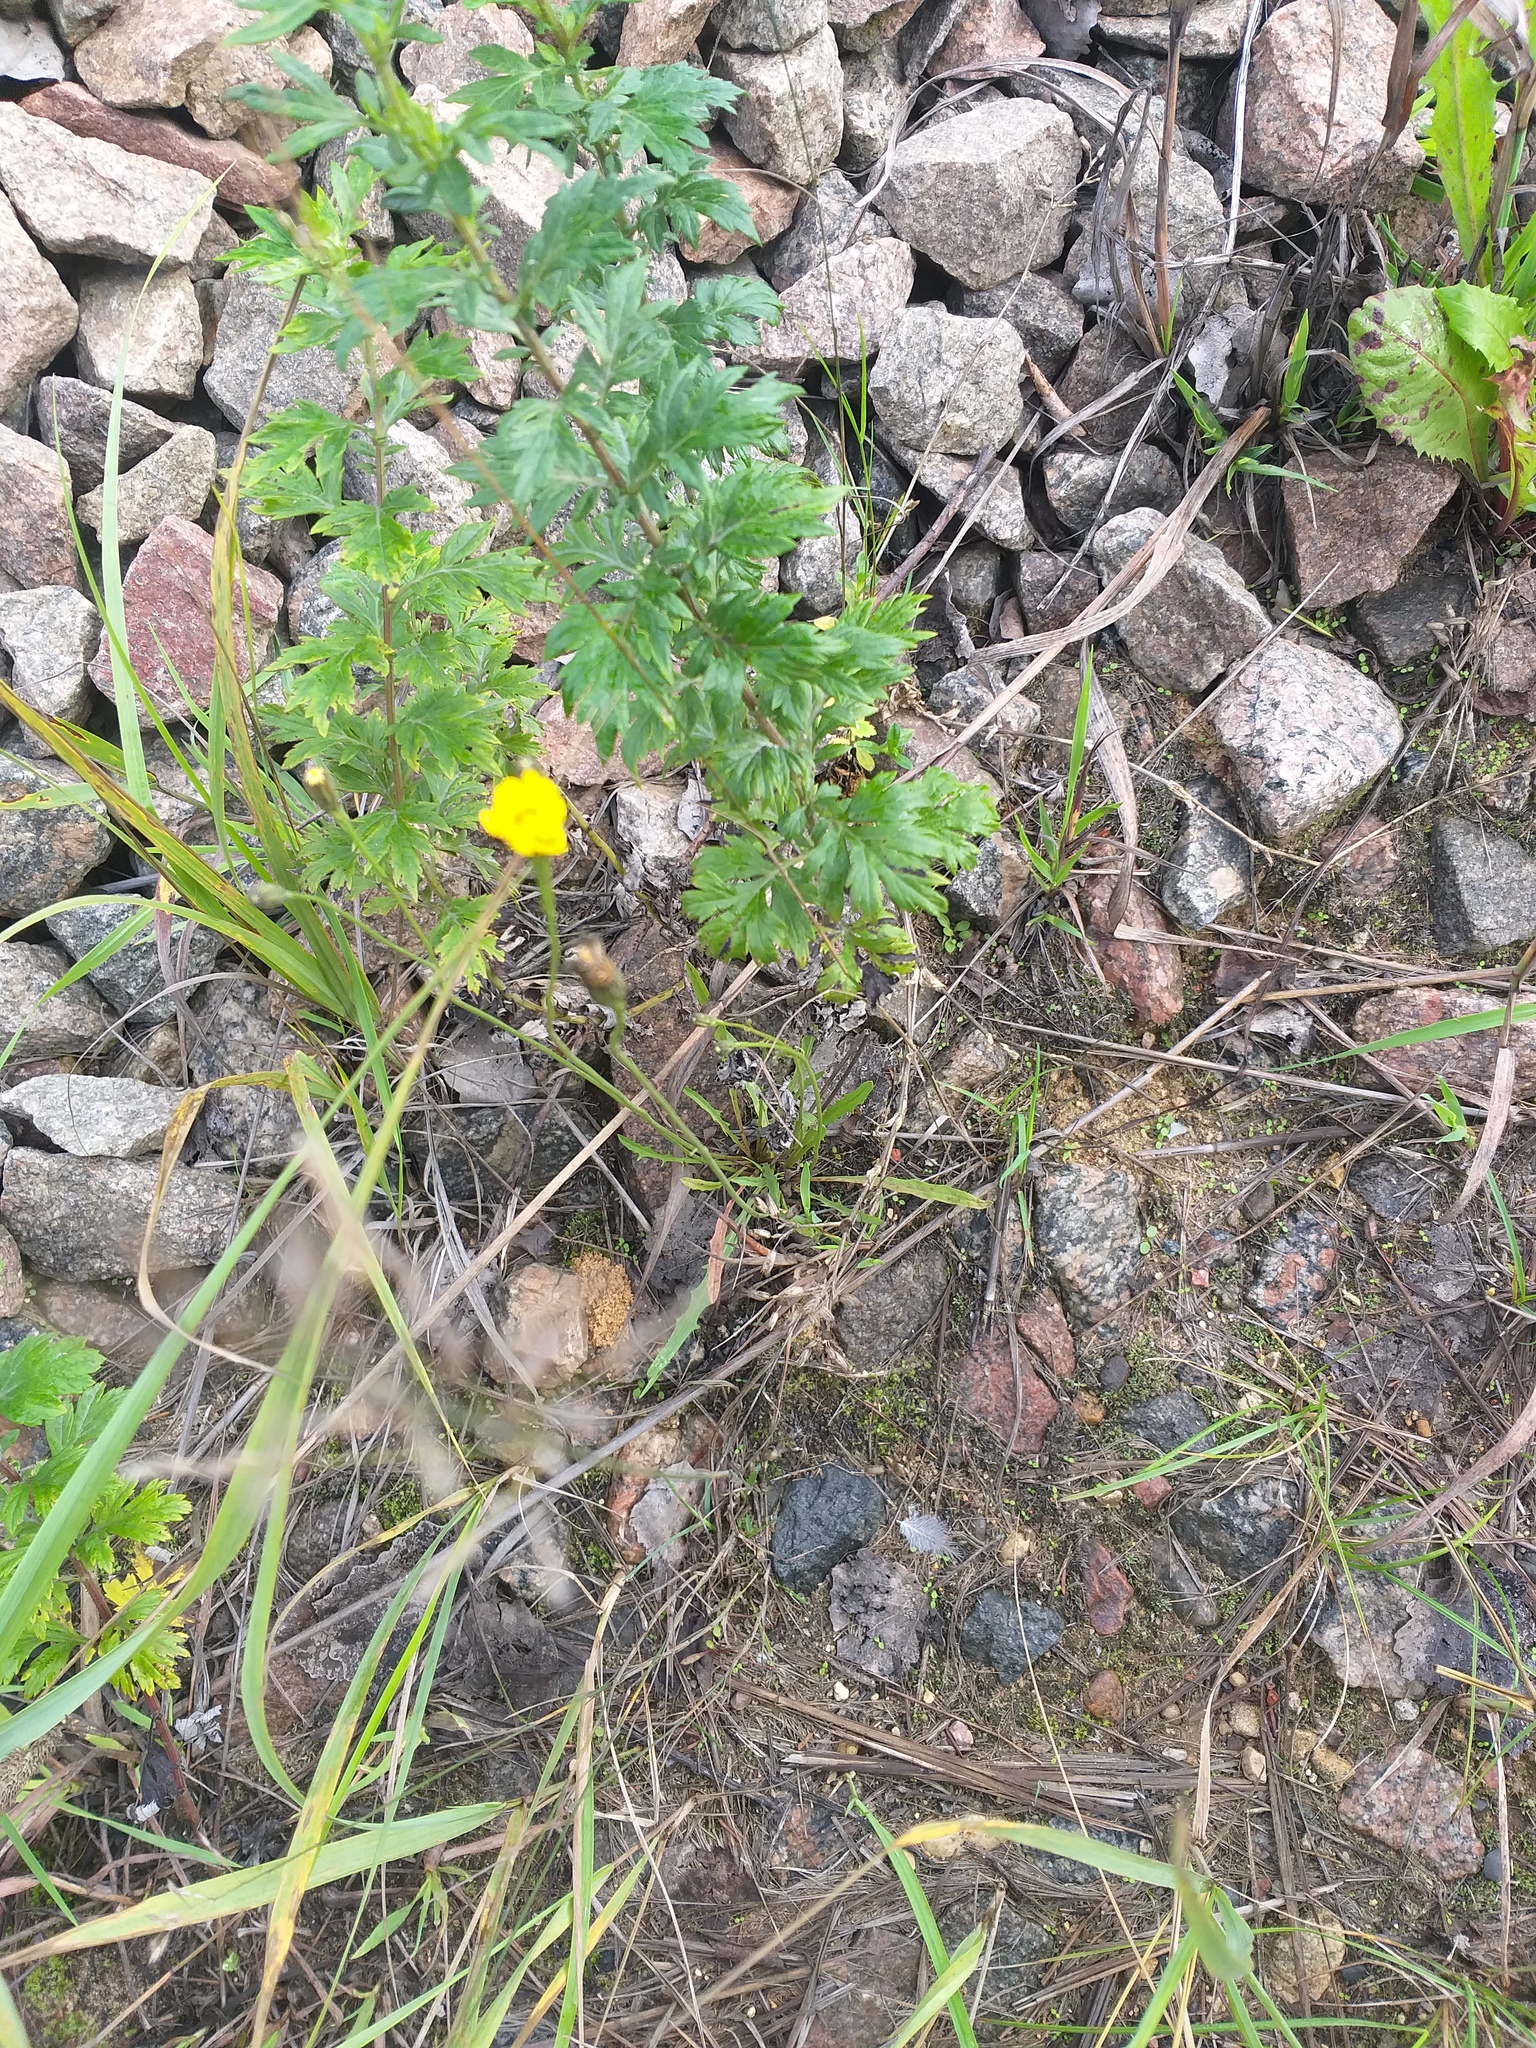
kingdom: Plantae
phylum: Tracheophyta
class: Magnoliopsida
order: Asterales
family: Asteraceae
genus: Scorzoneroides
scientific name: Scorzoneroides autumnalis
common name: Autumn hawkbit
